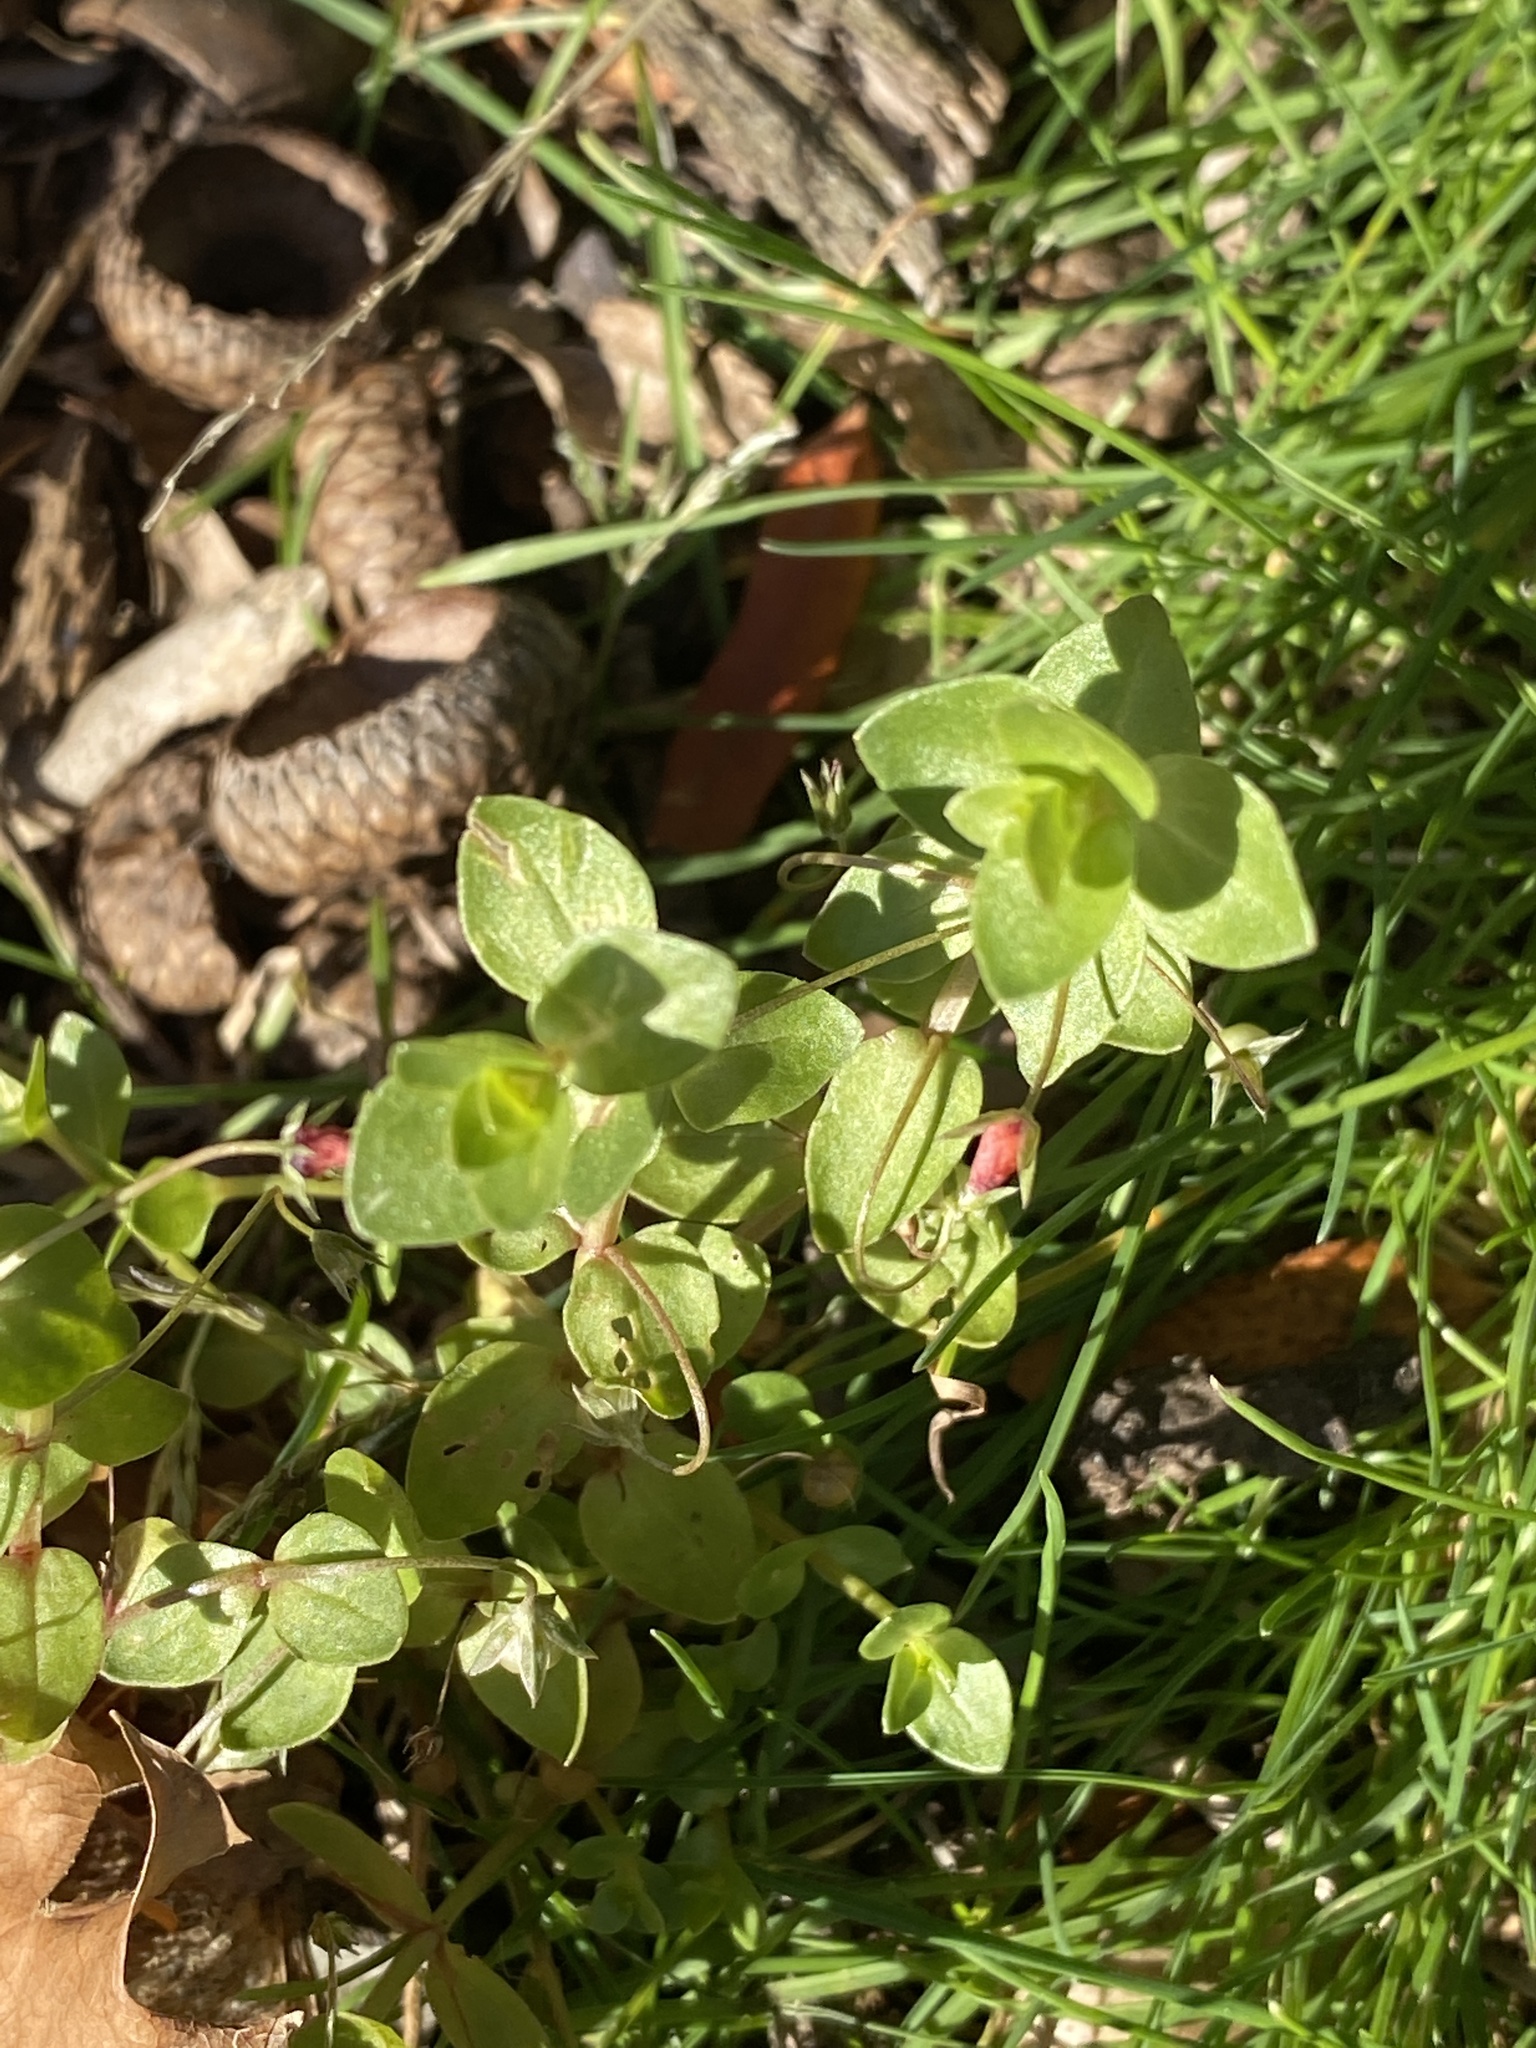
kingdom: Plantae
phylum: Tracheophyta
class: Magnoliopsida
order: Ericales
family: Primulaceae
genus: Lysimachia
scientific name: Lysimachia arvensis
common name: Scarlet pimpernel
